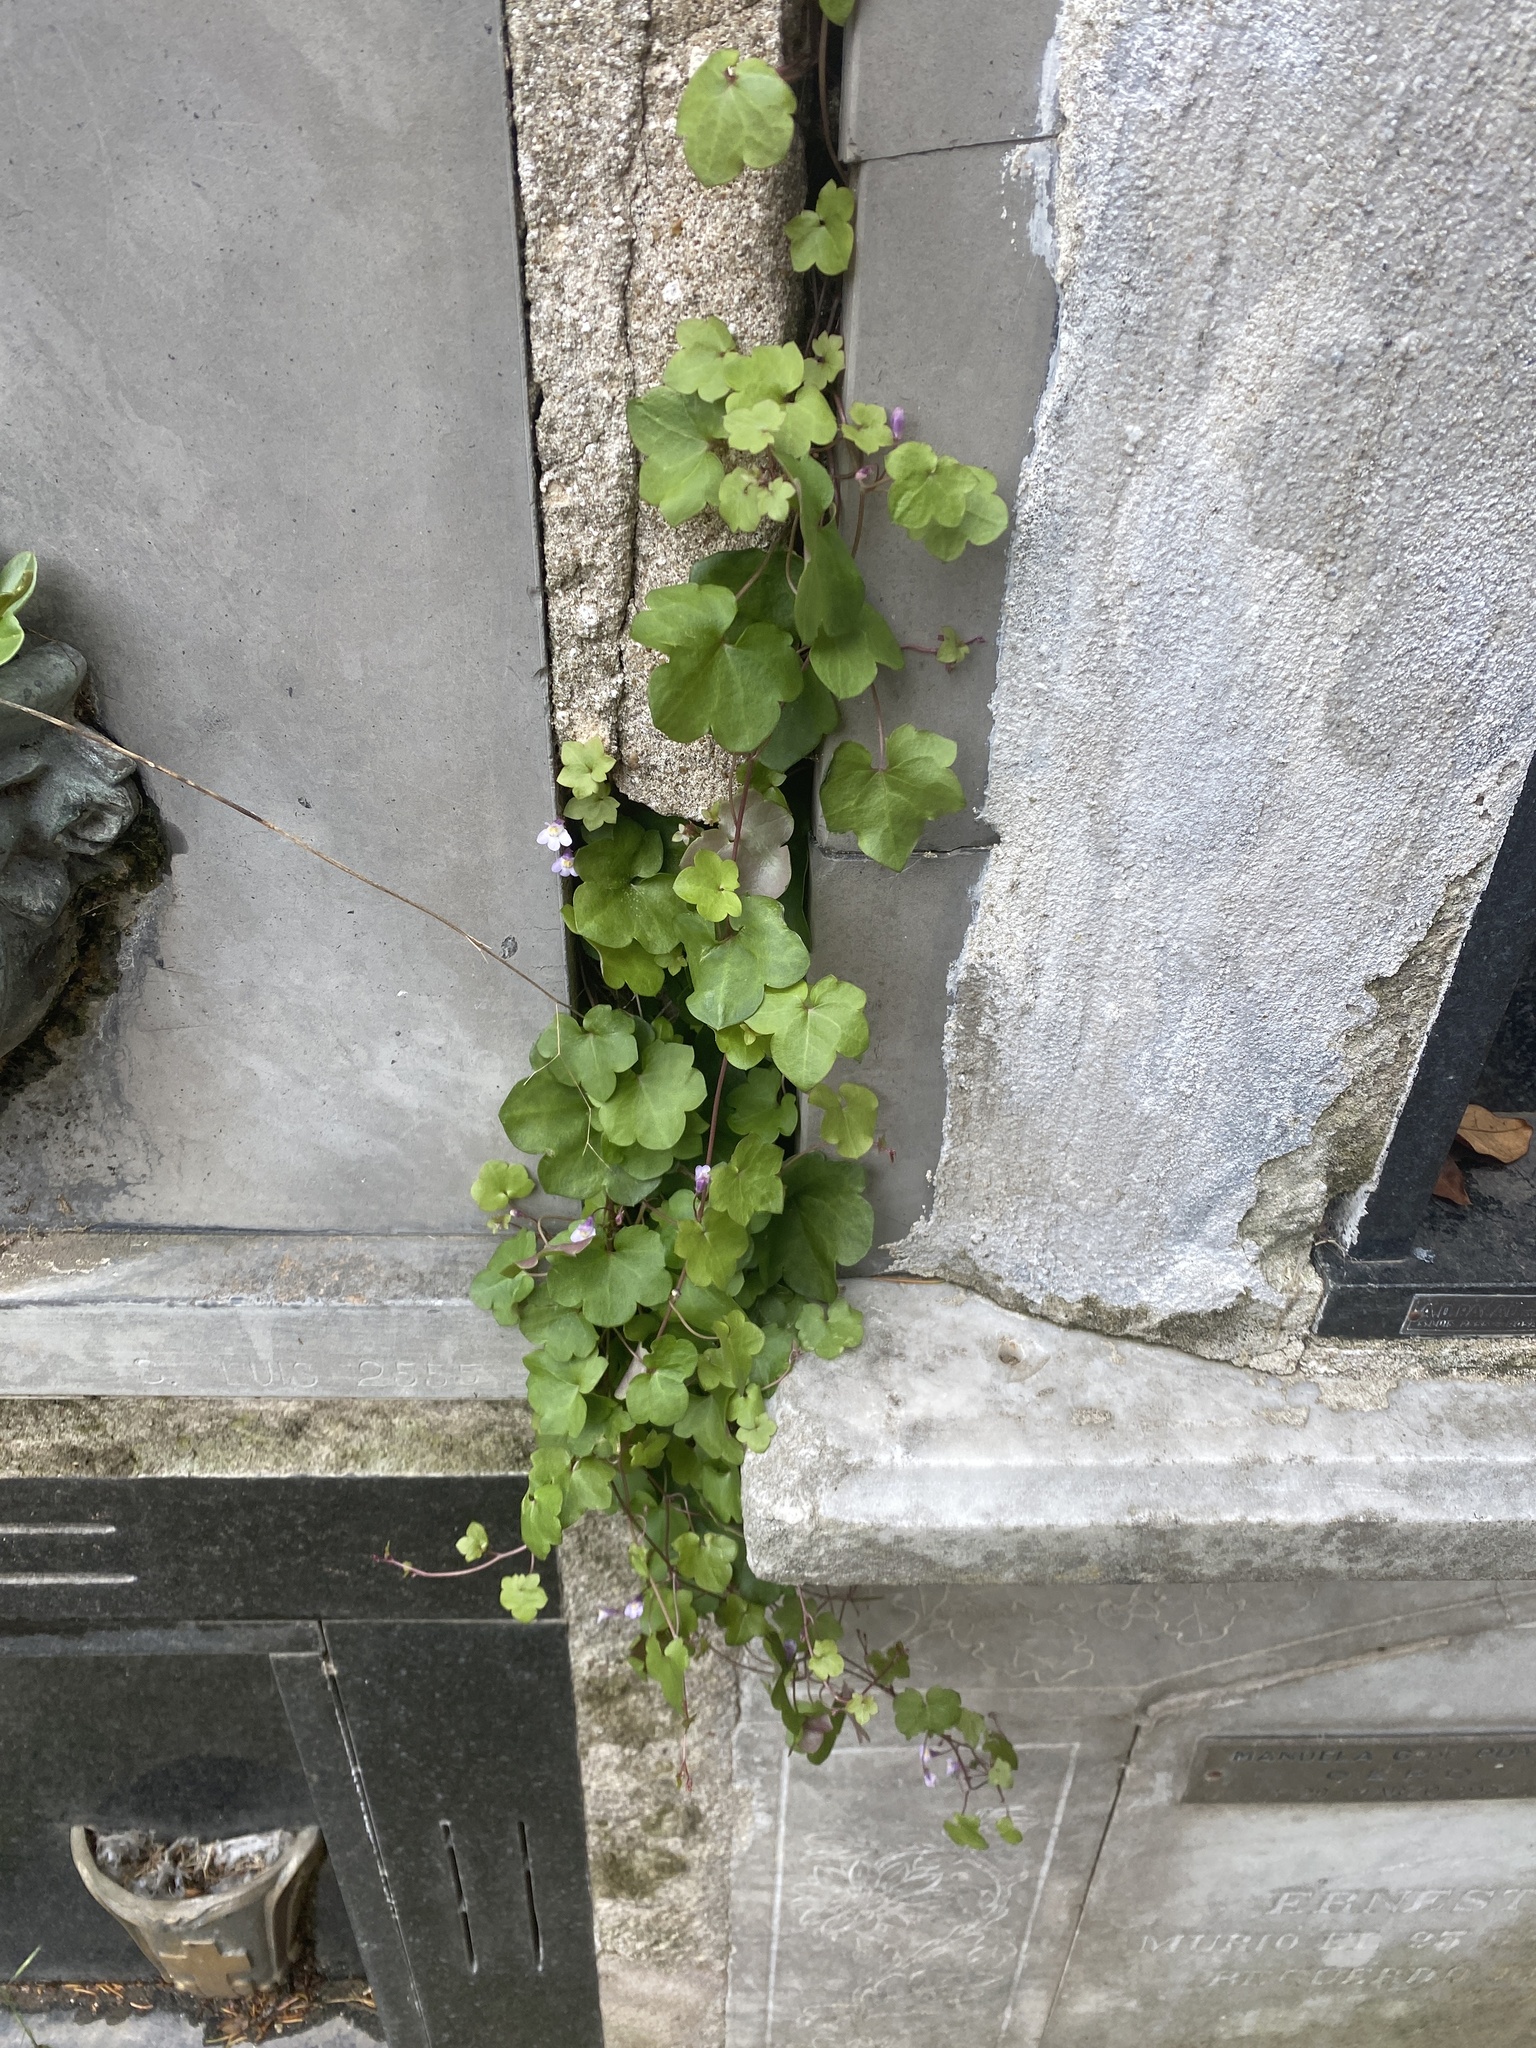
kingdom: Plantae
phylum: Tracheophyta
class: Magnoliopsida
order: Lamiales
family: Plantaginaceae
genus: Cymbalaria
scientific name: Cymbalaria muralis
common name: Ivy-leaved toadflax
